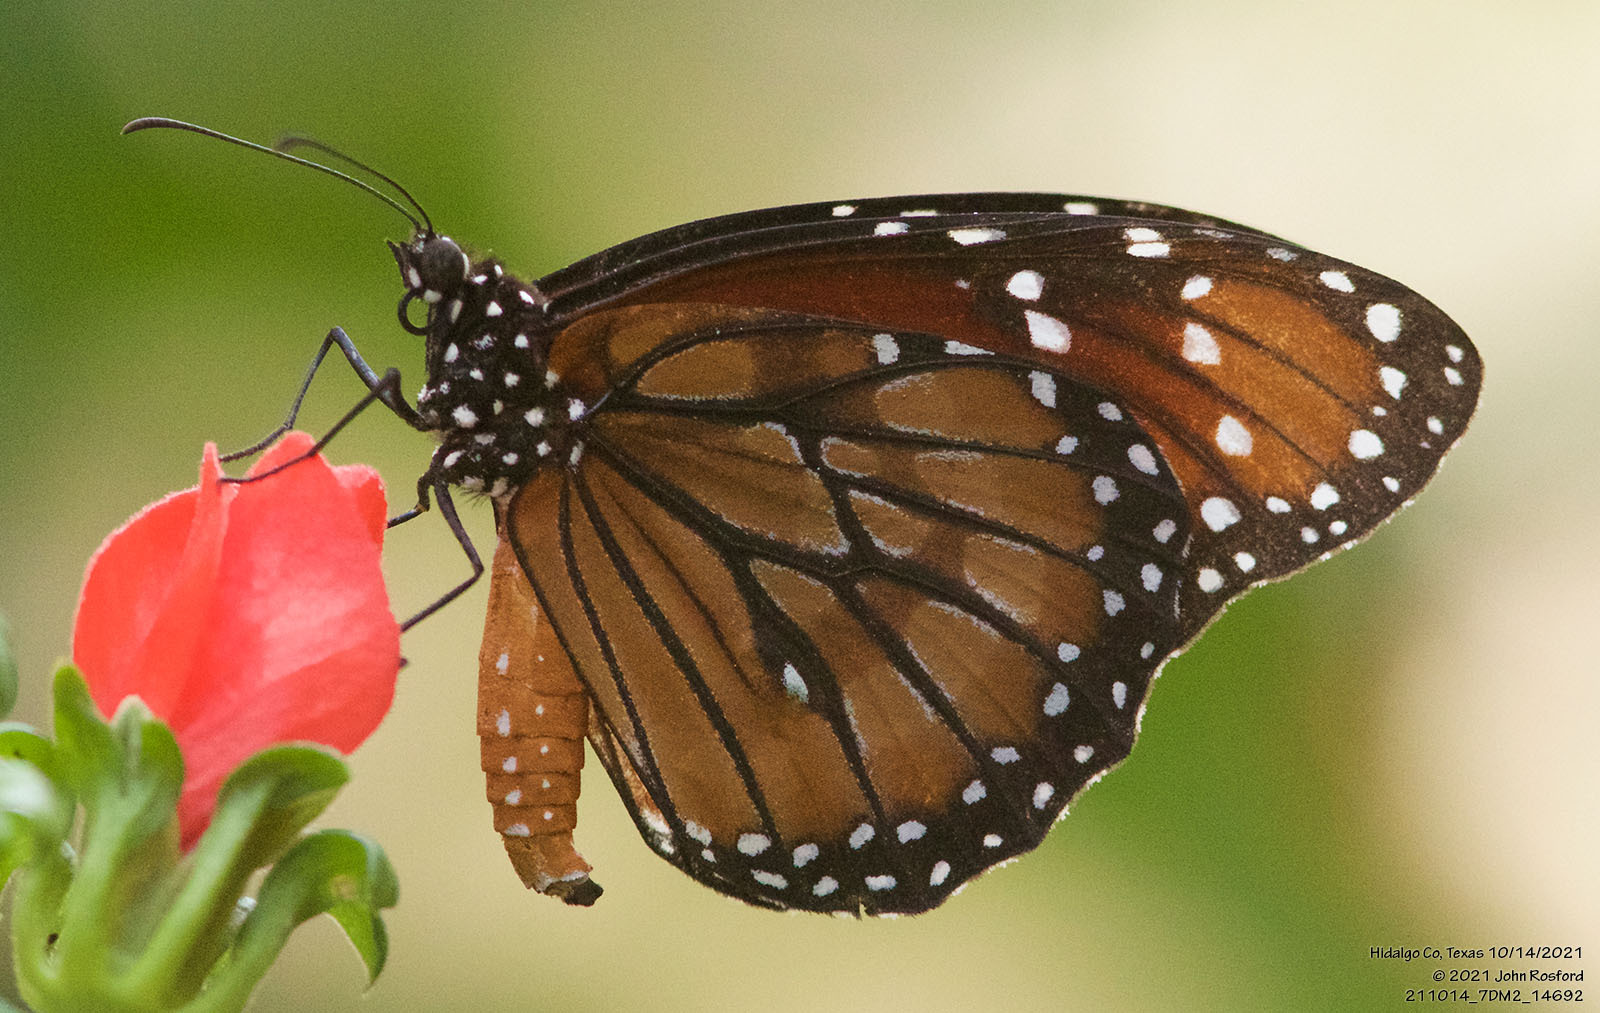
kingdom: Animalia
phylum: Arthropoda
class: Insecta
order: Lepidoptera
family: Nymphalidae
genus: Danaus
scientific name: Danaus eresimus
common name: Soldier
